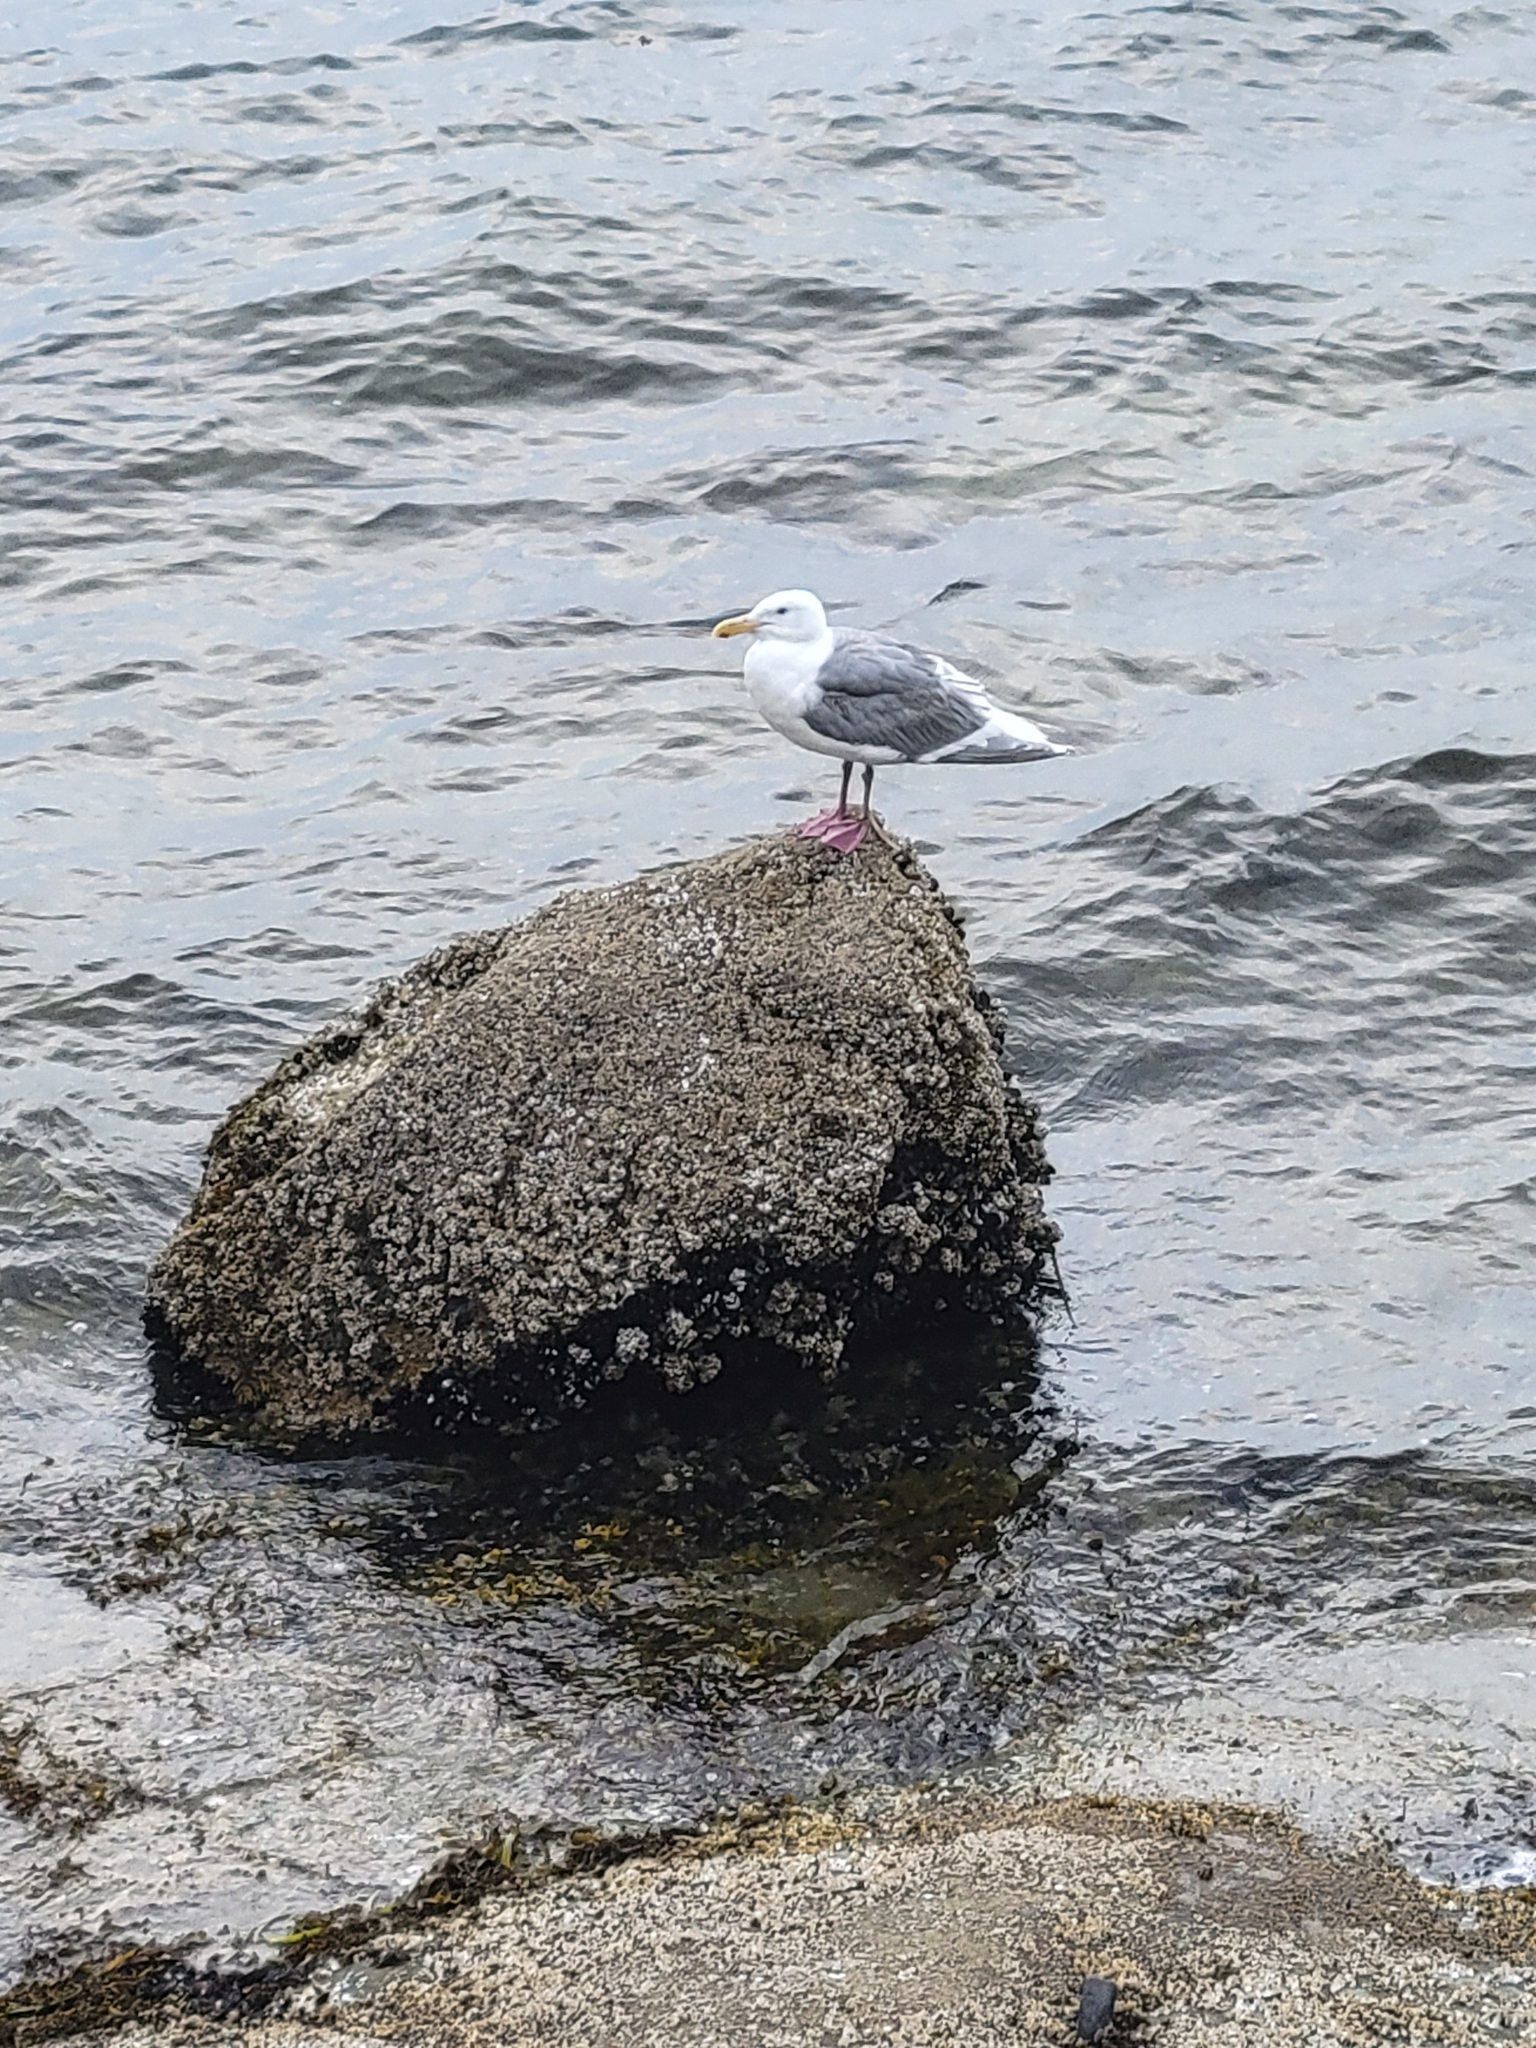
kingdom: Animalia
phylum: Chordata
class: Aves
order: Charadriiformes
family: Laridae
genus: Larus
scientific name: Larus glaucescens
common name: Glaucous-winged gull
